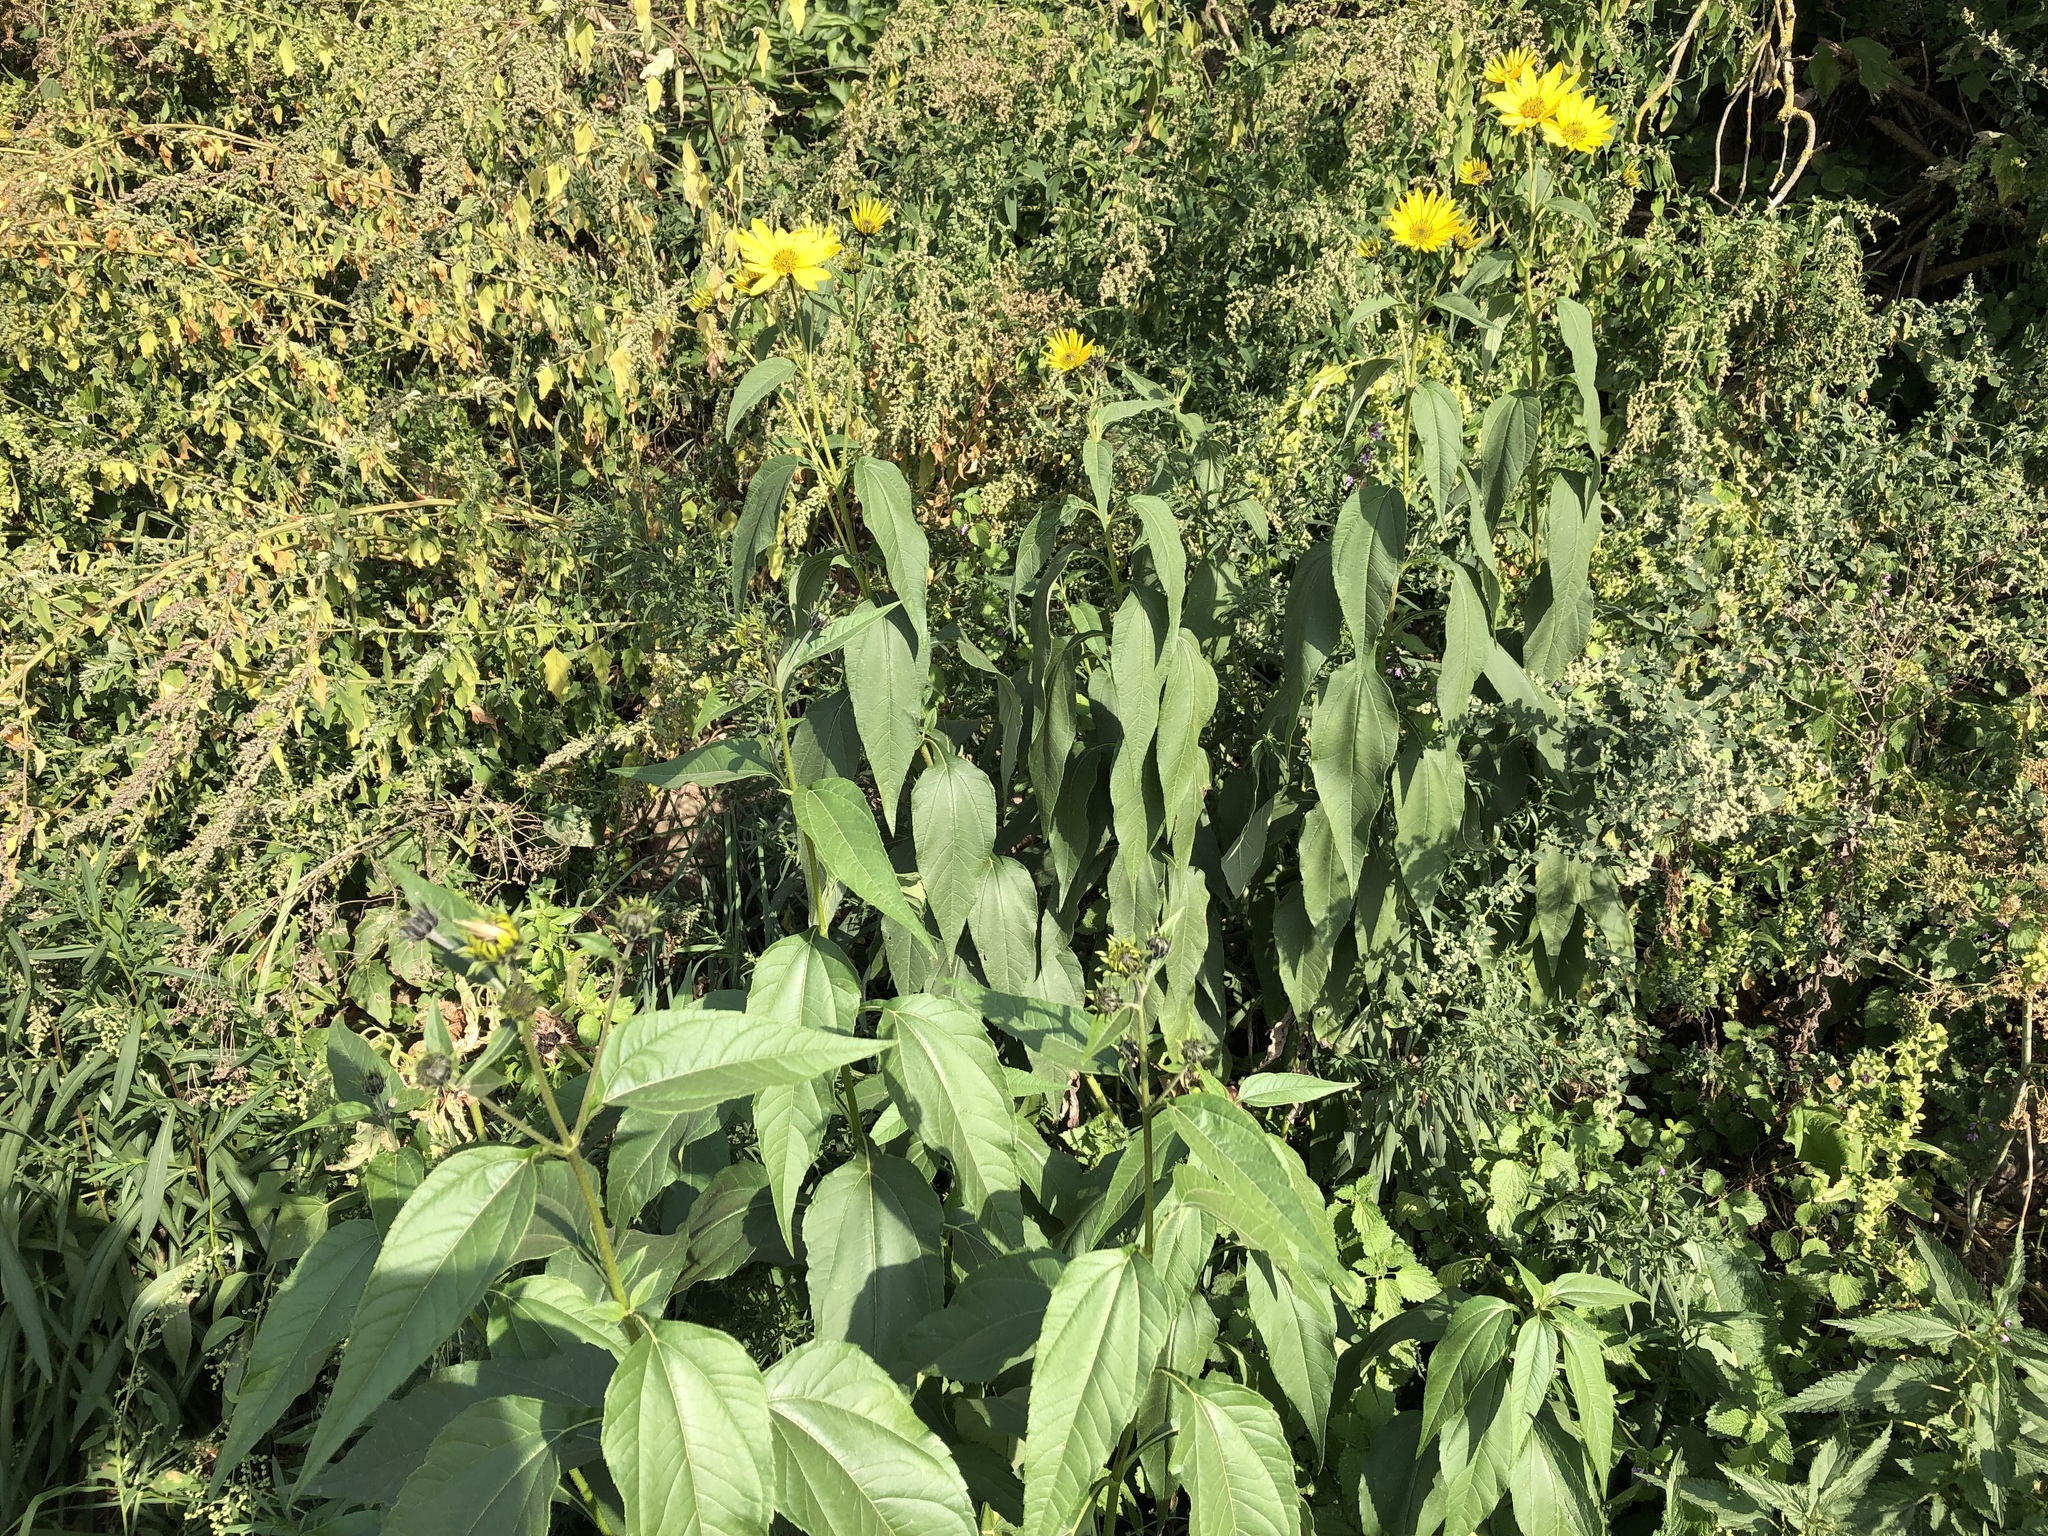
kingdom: Plantae
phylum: Tracheophyta
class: Magnoliopsida
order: Asterales
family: Asteraceae
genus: Helianthus
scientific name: Helianthus tuberosus
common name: Jerusalem artichoke
